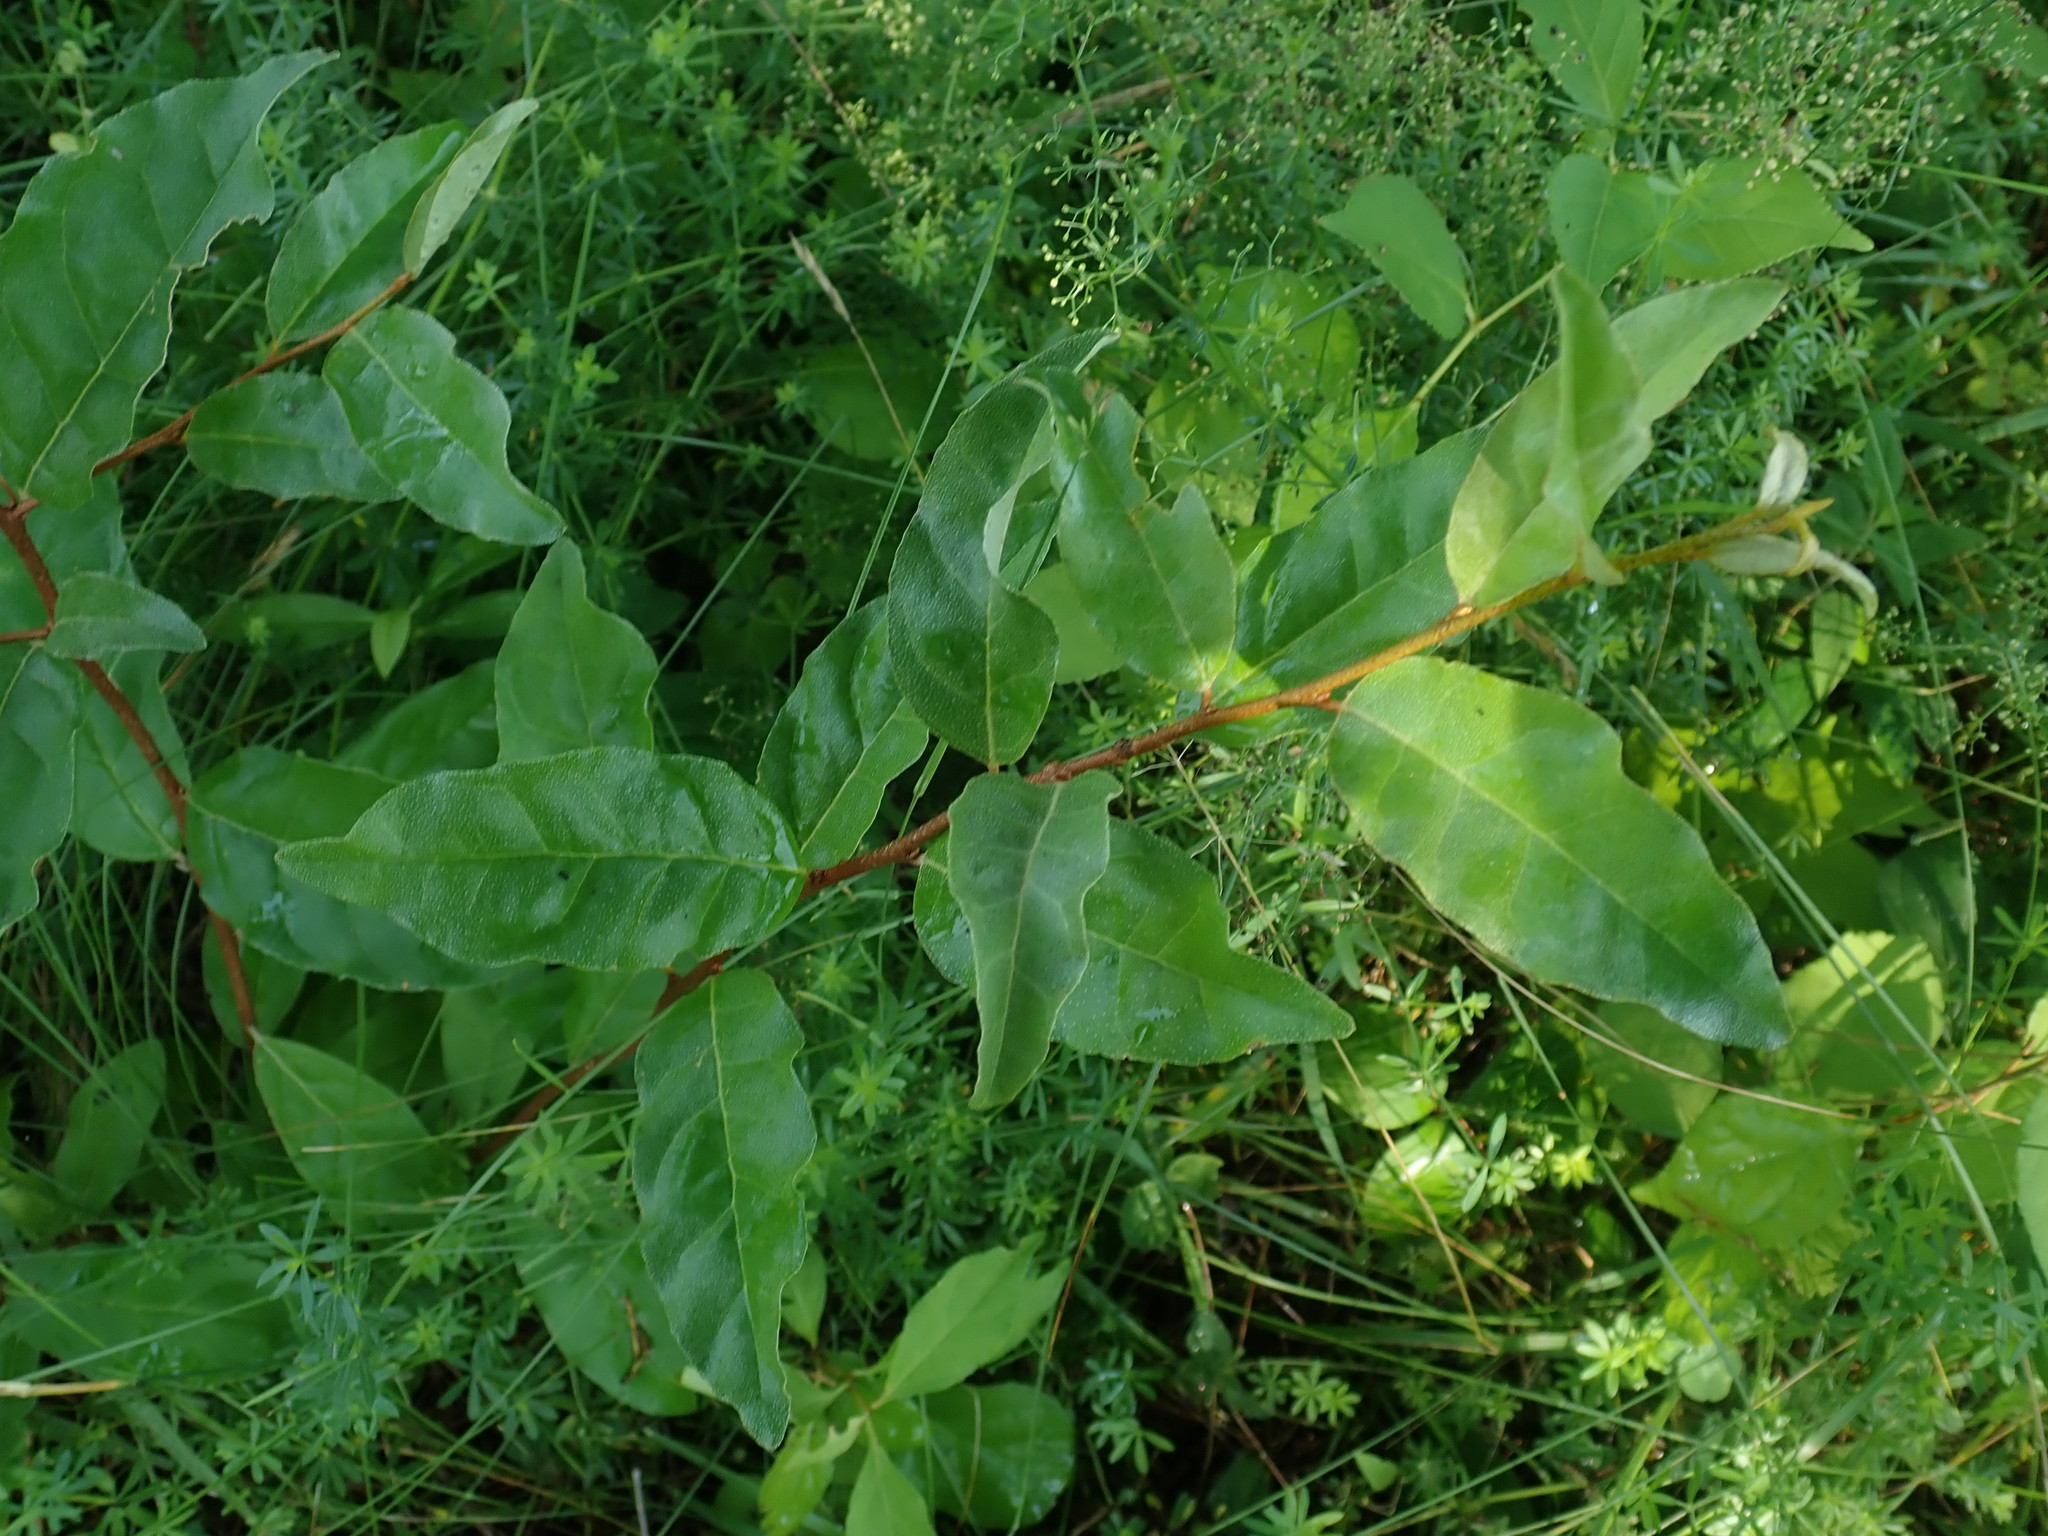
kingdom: Plantae
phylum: Tracheophyta
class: Magnoliopsida
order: Rosales
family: Elaeagnaceae
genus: Elaeagnus
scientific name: Elaeagnus umbellata
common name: Autumn olive
